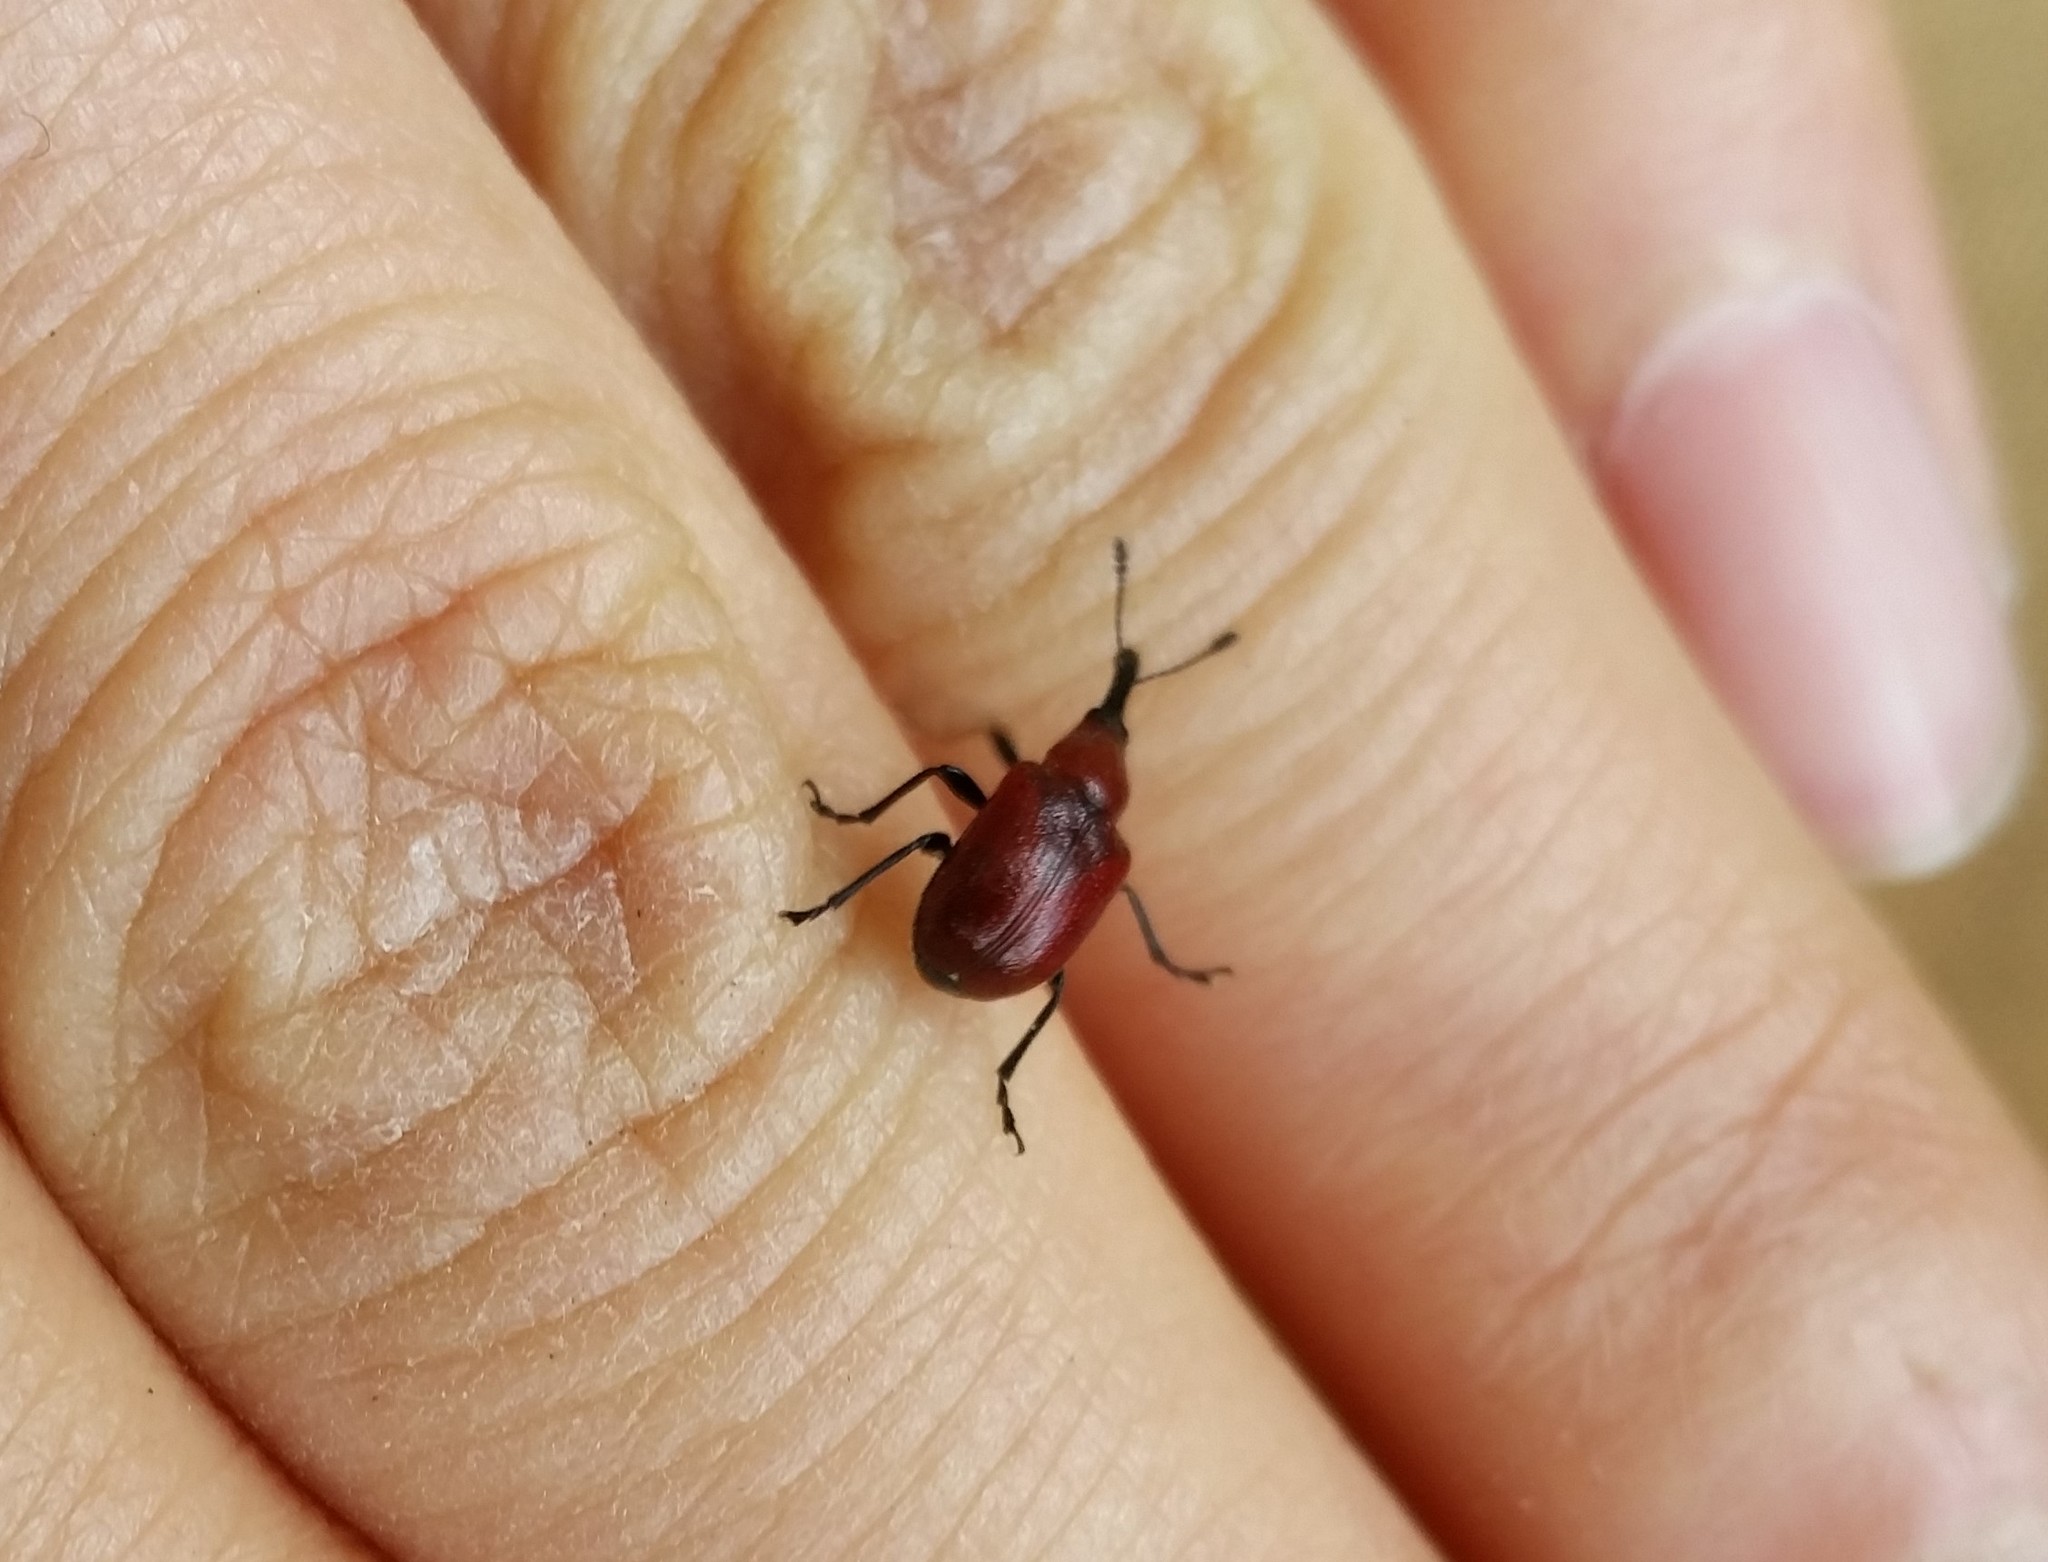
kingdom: Animalia
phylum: Arthropoda
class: Insecta
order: Coleoptera
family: Attelabidae
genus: Merhynchites
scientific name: Merhynchites bicolor
